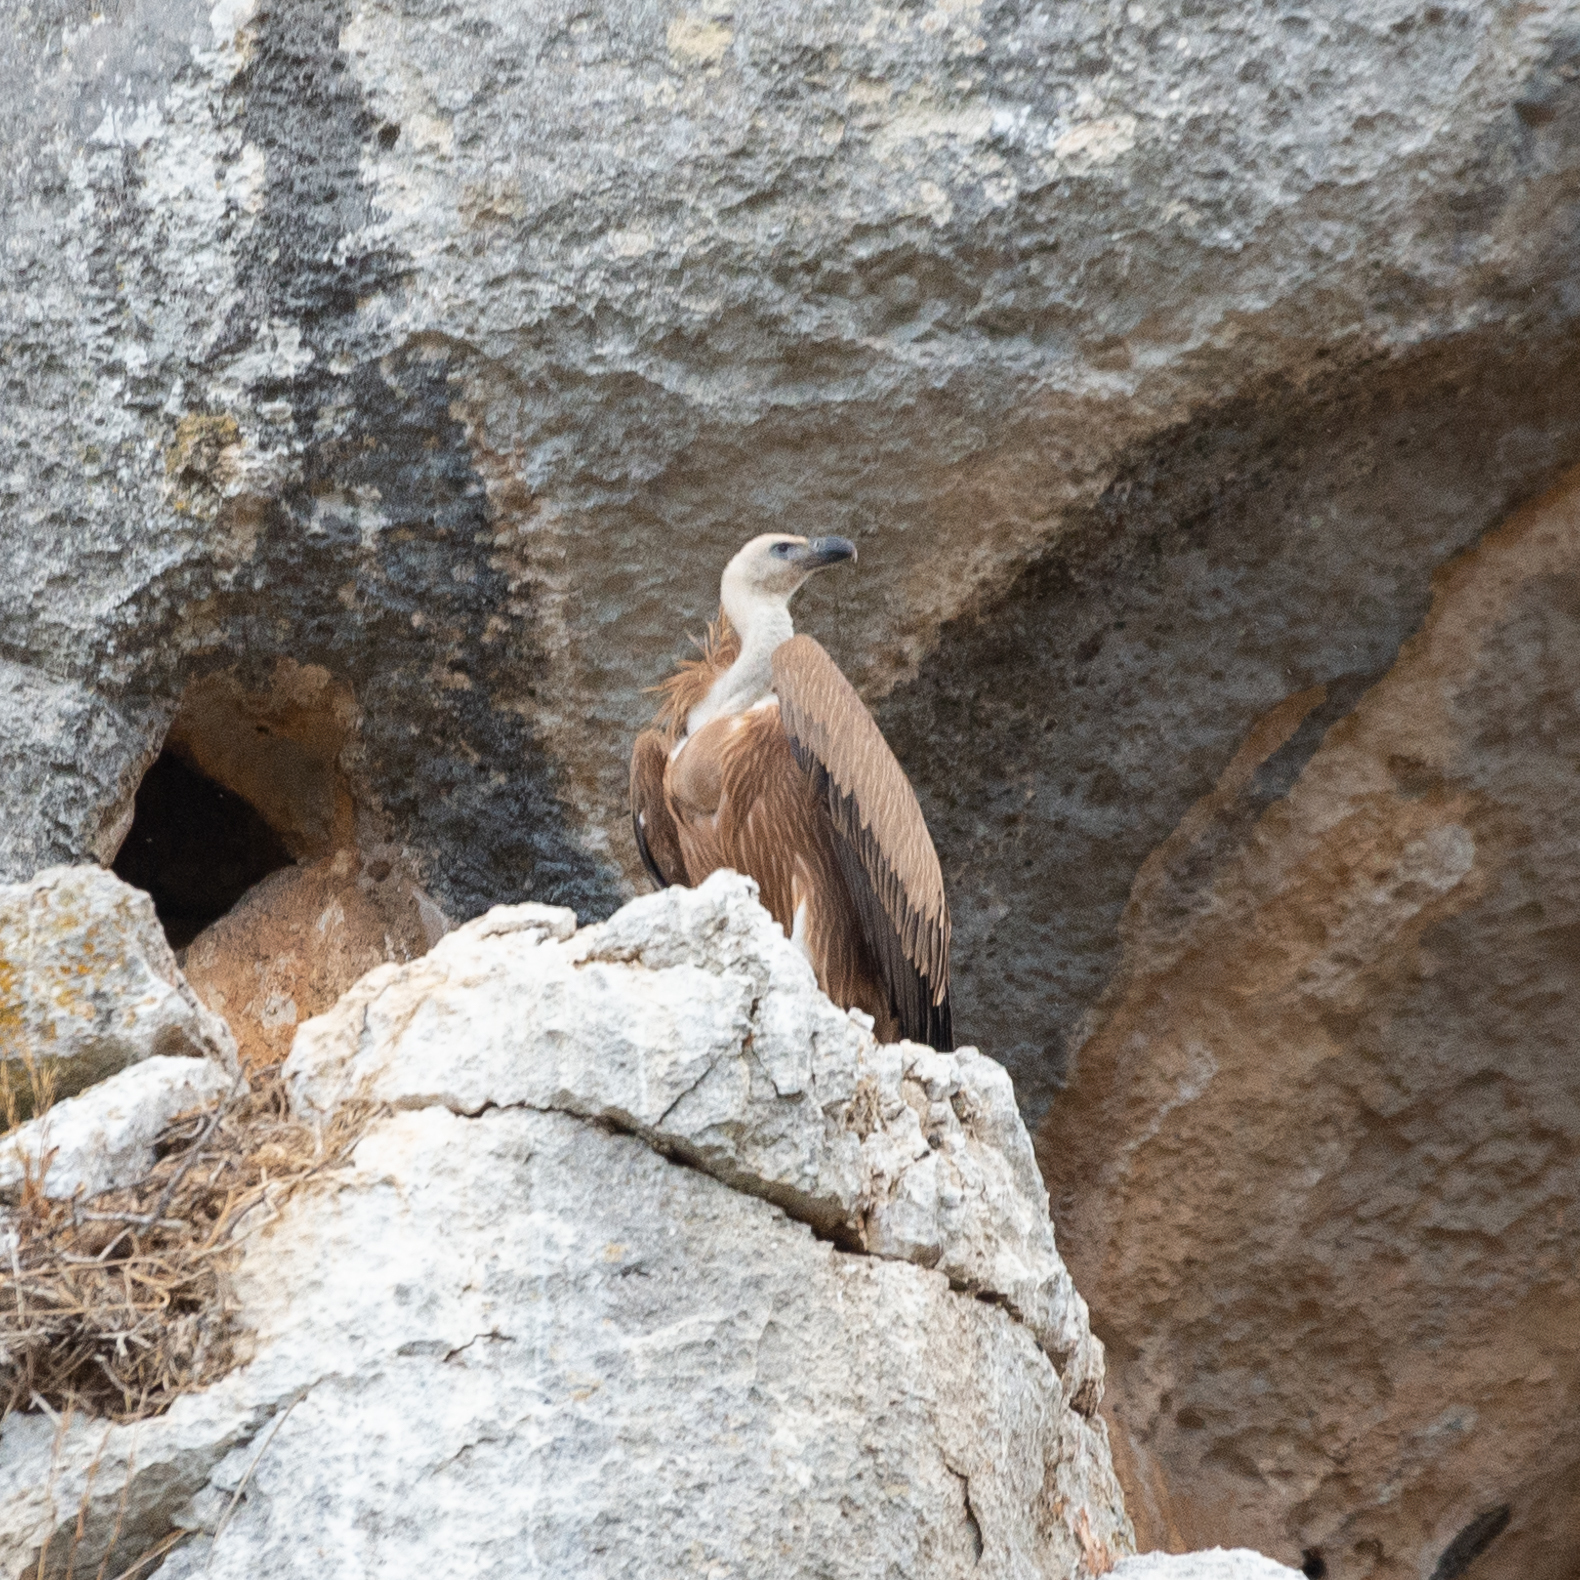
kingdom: Animalia
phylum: Chordata
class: Aves
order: Accipitriformes
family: Accipitridae
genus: Gyps
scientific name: Gyps fulvus
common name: Griffon vulture
